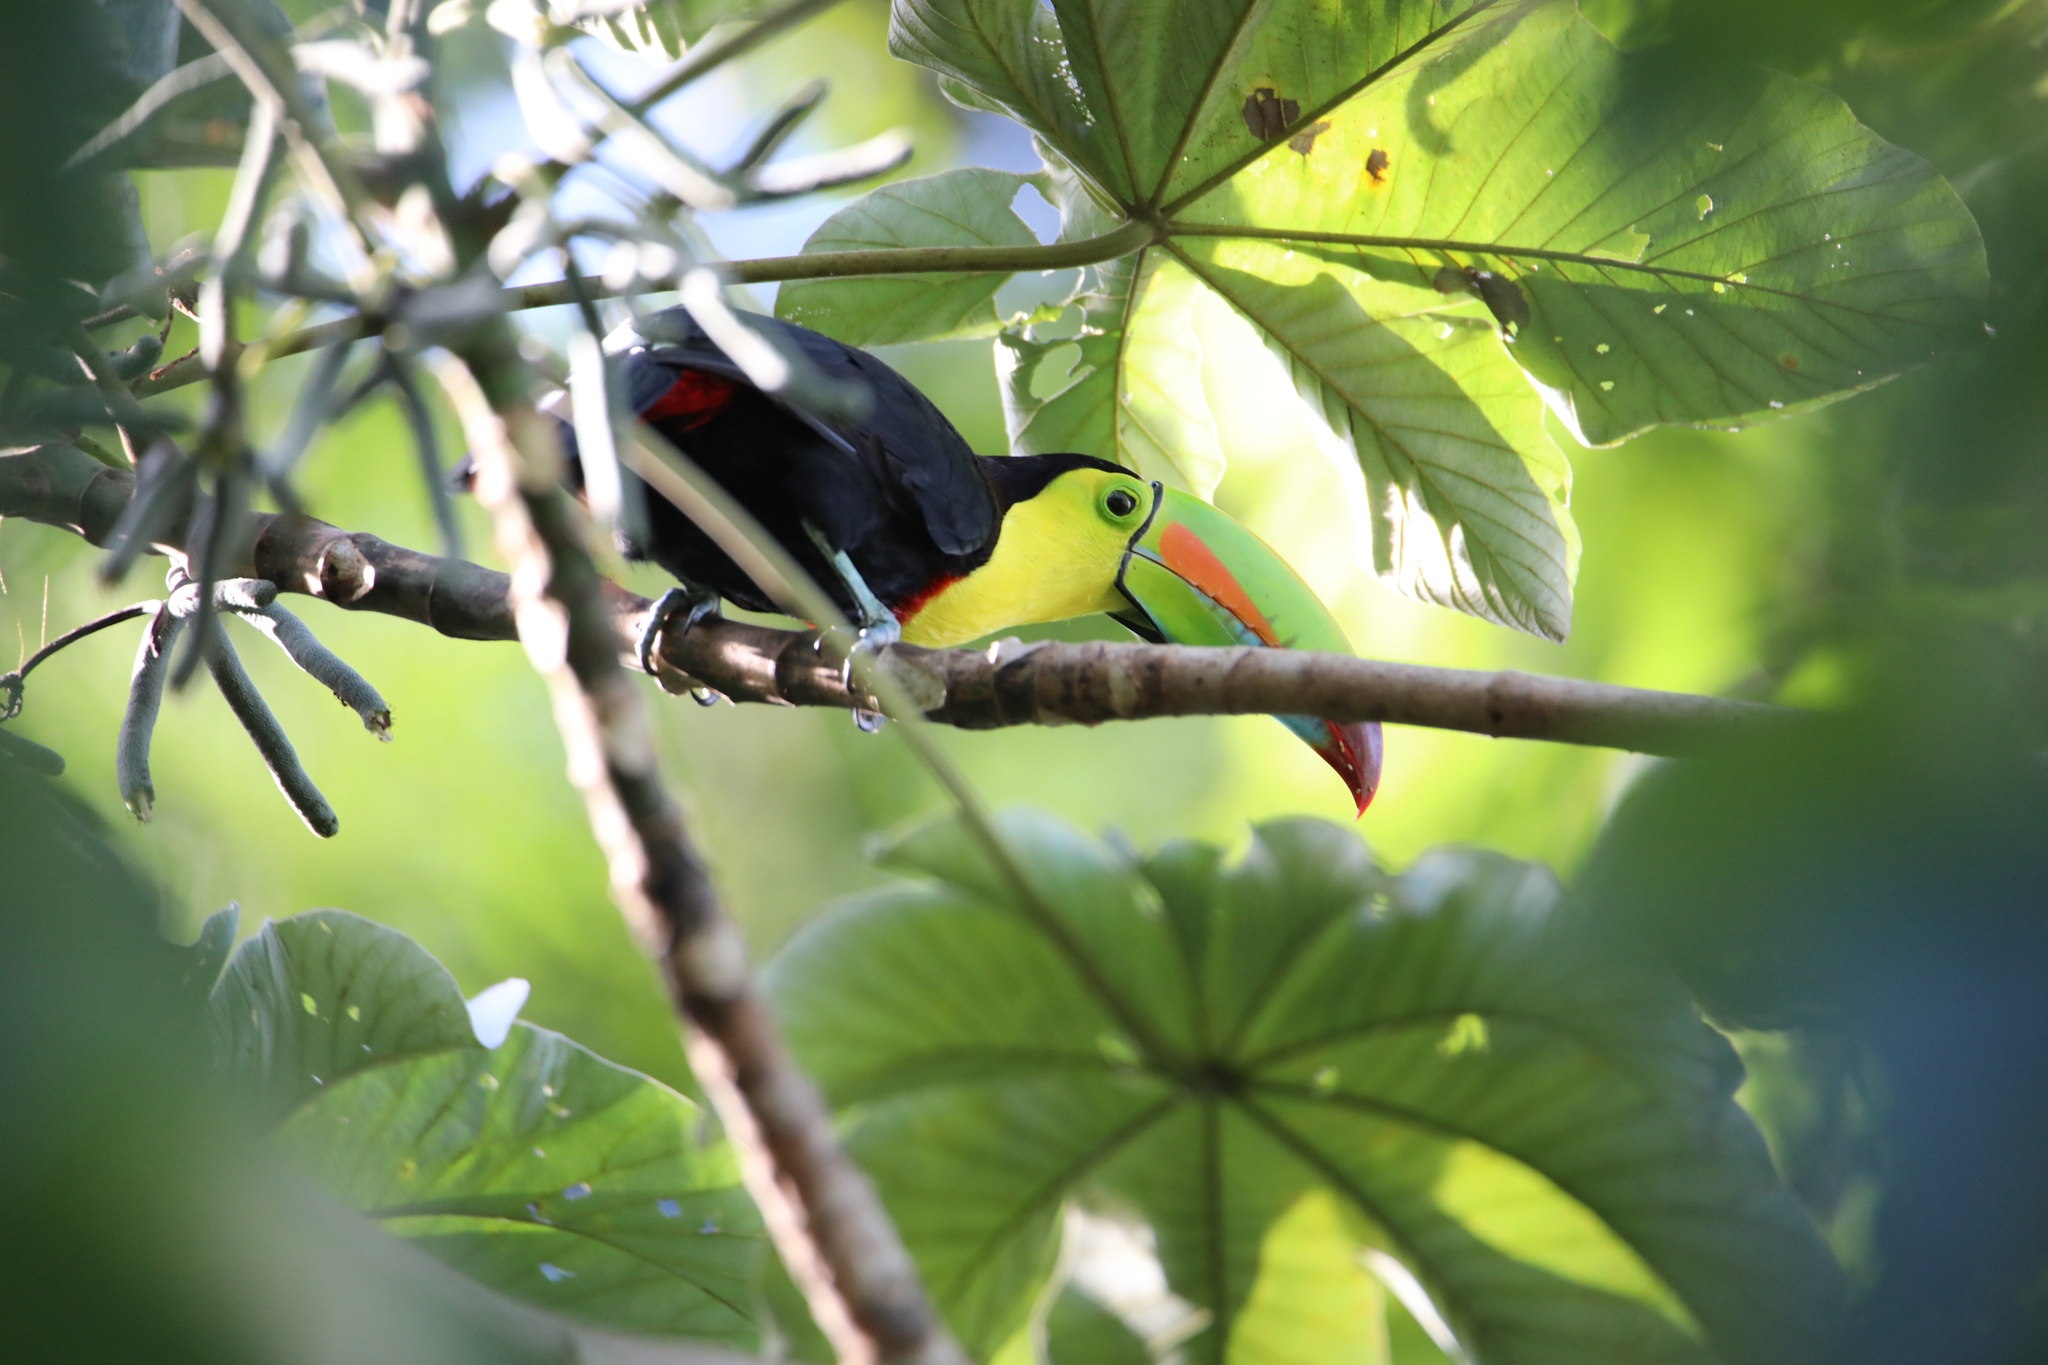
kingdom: Animalia
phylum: Chordata
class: Aves
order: Piciformes
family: Ramphastidae
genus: Ramphastos
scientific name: Ramphastos sulfuratus
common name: Keel-billed toucan
